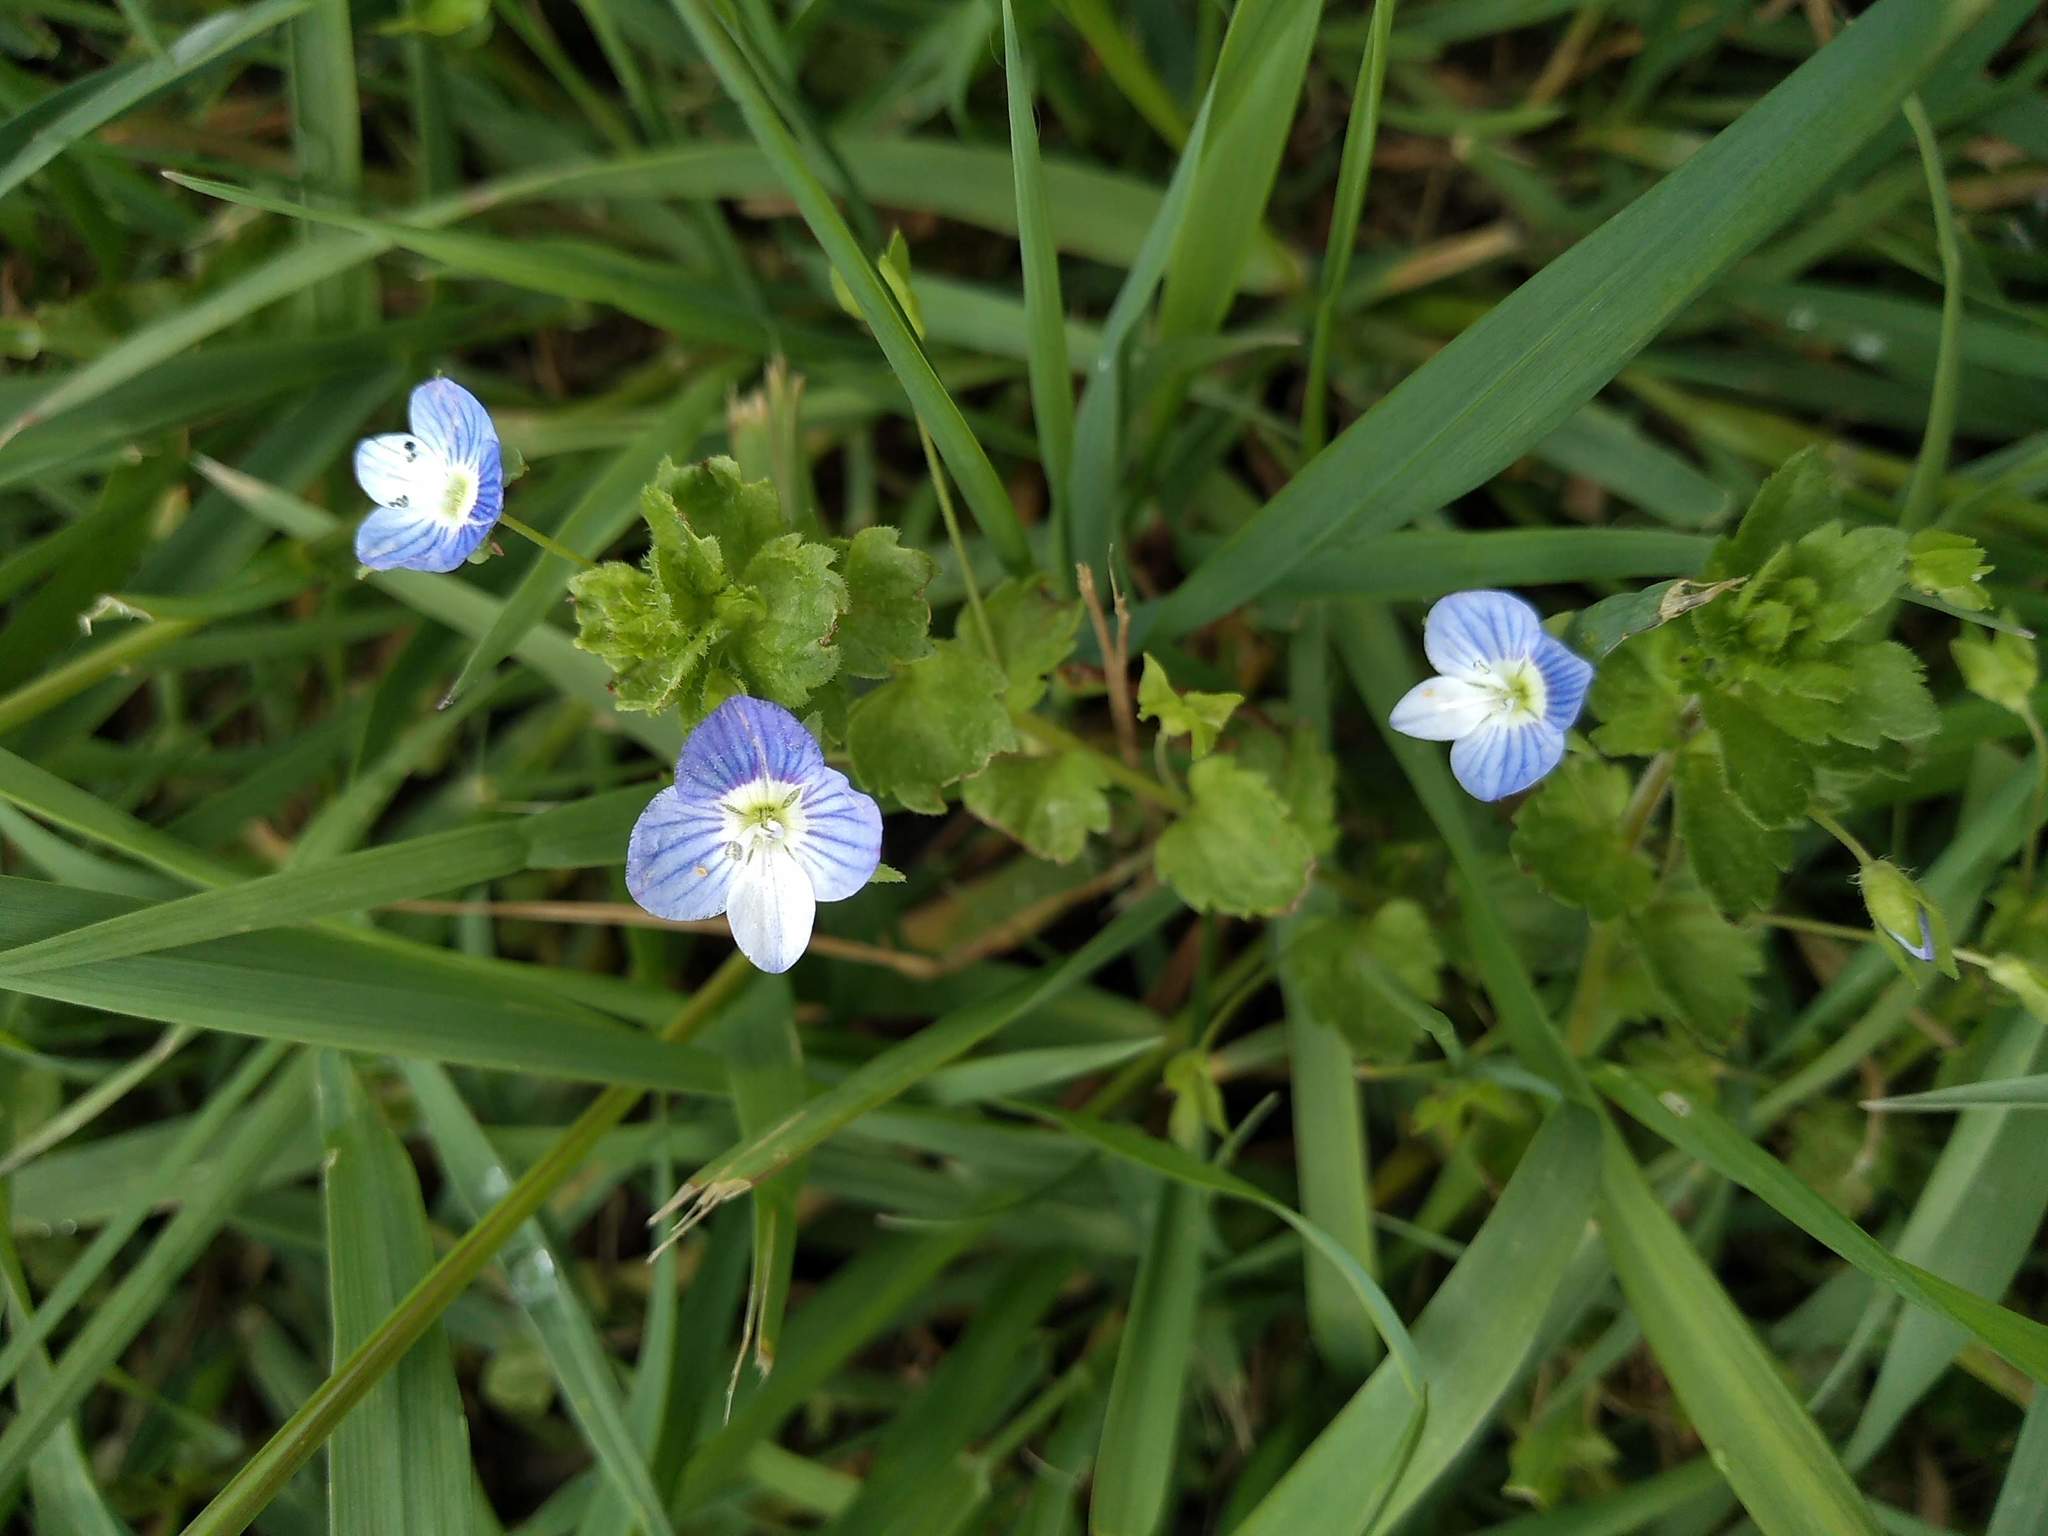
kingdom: Plantae
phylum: Tracheophyta
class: Magnoliopsida
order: Lamiales
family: Plantaginaceae
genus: Veronica
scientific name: Veronica persica
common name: Common field-speedwell
